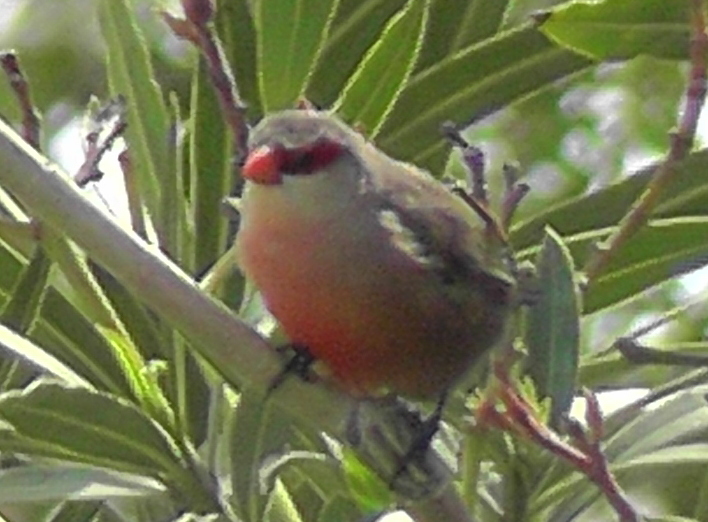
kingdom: Animalia
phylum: Chordata
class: Aves
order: Passeriformes
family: Estrildidae
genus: Estrilda
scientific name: Estrilda astrild
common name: Common waxbill
